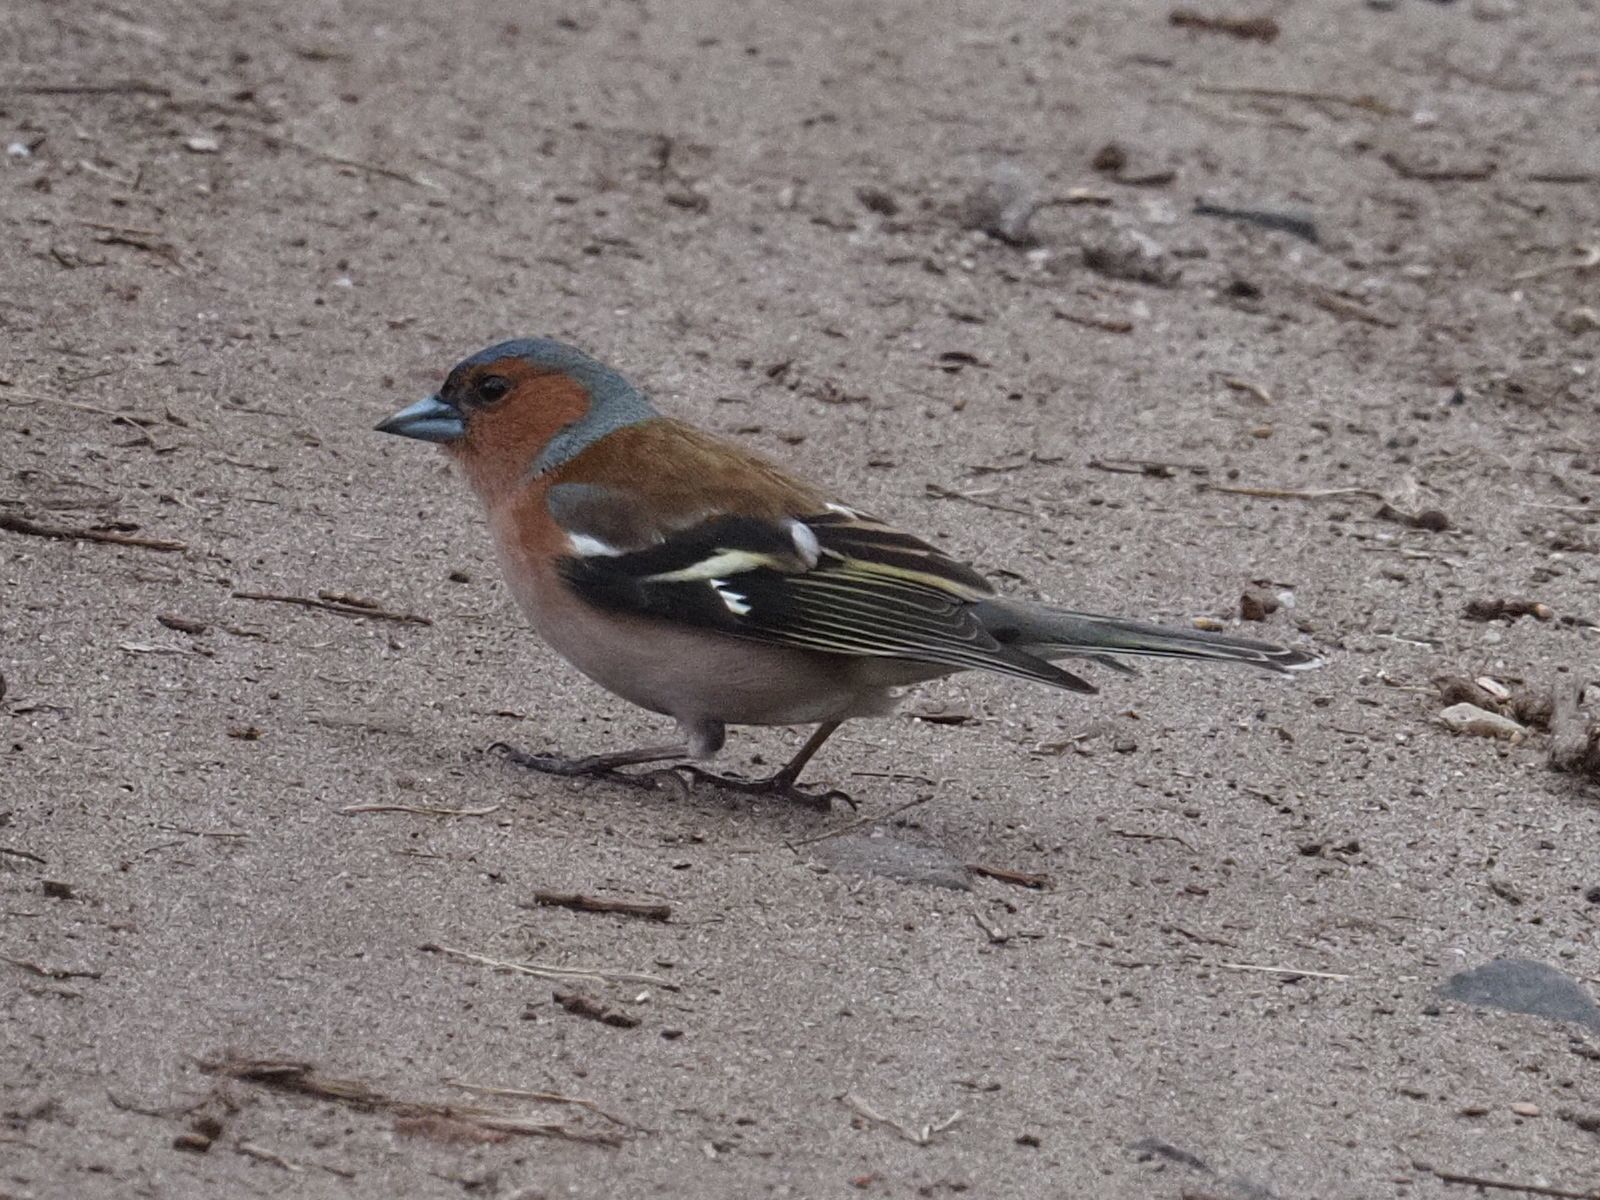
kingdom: Animalia
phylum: Chordata
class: Aves
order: Passeriformes
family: Fringillidae
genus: Fringilla
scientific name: Fringilla coelebs
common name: Common chaffinch
